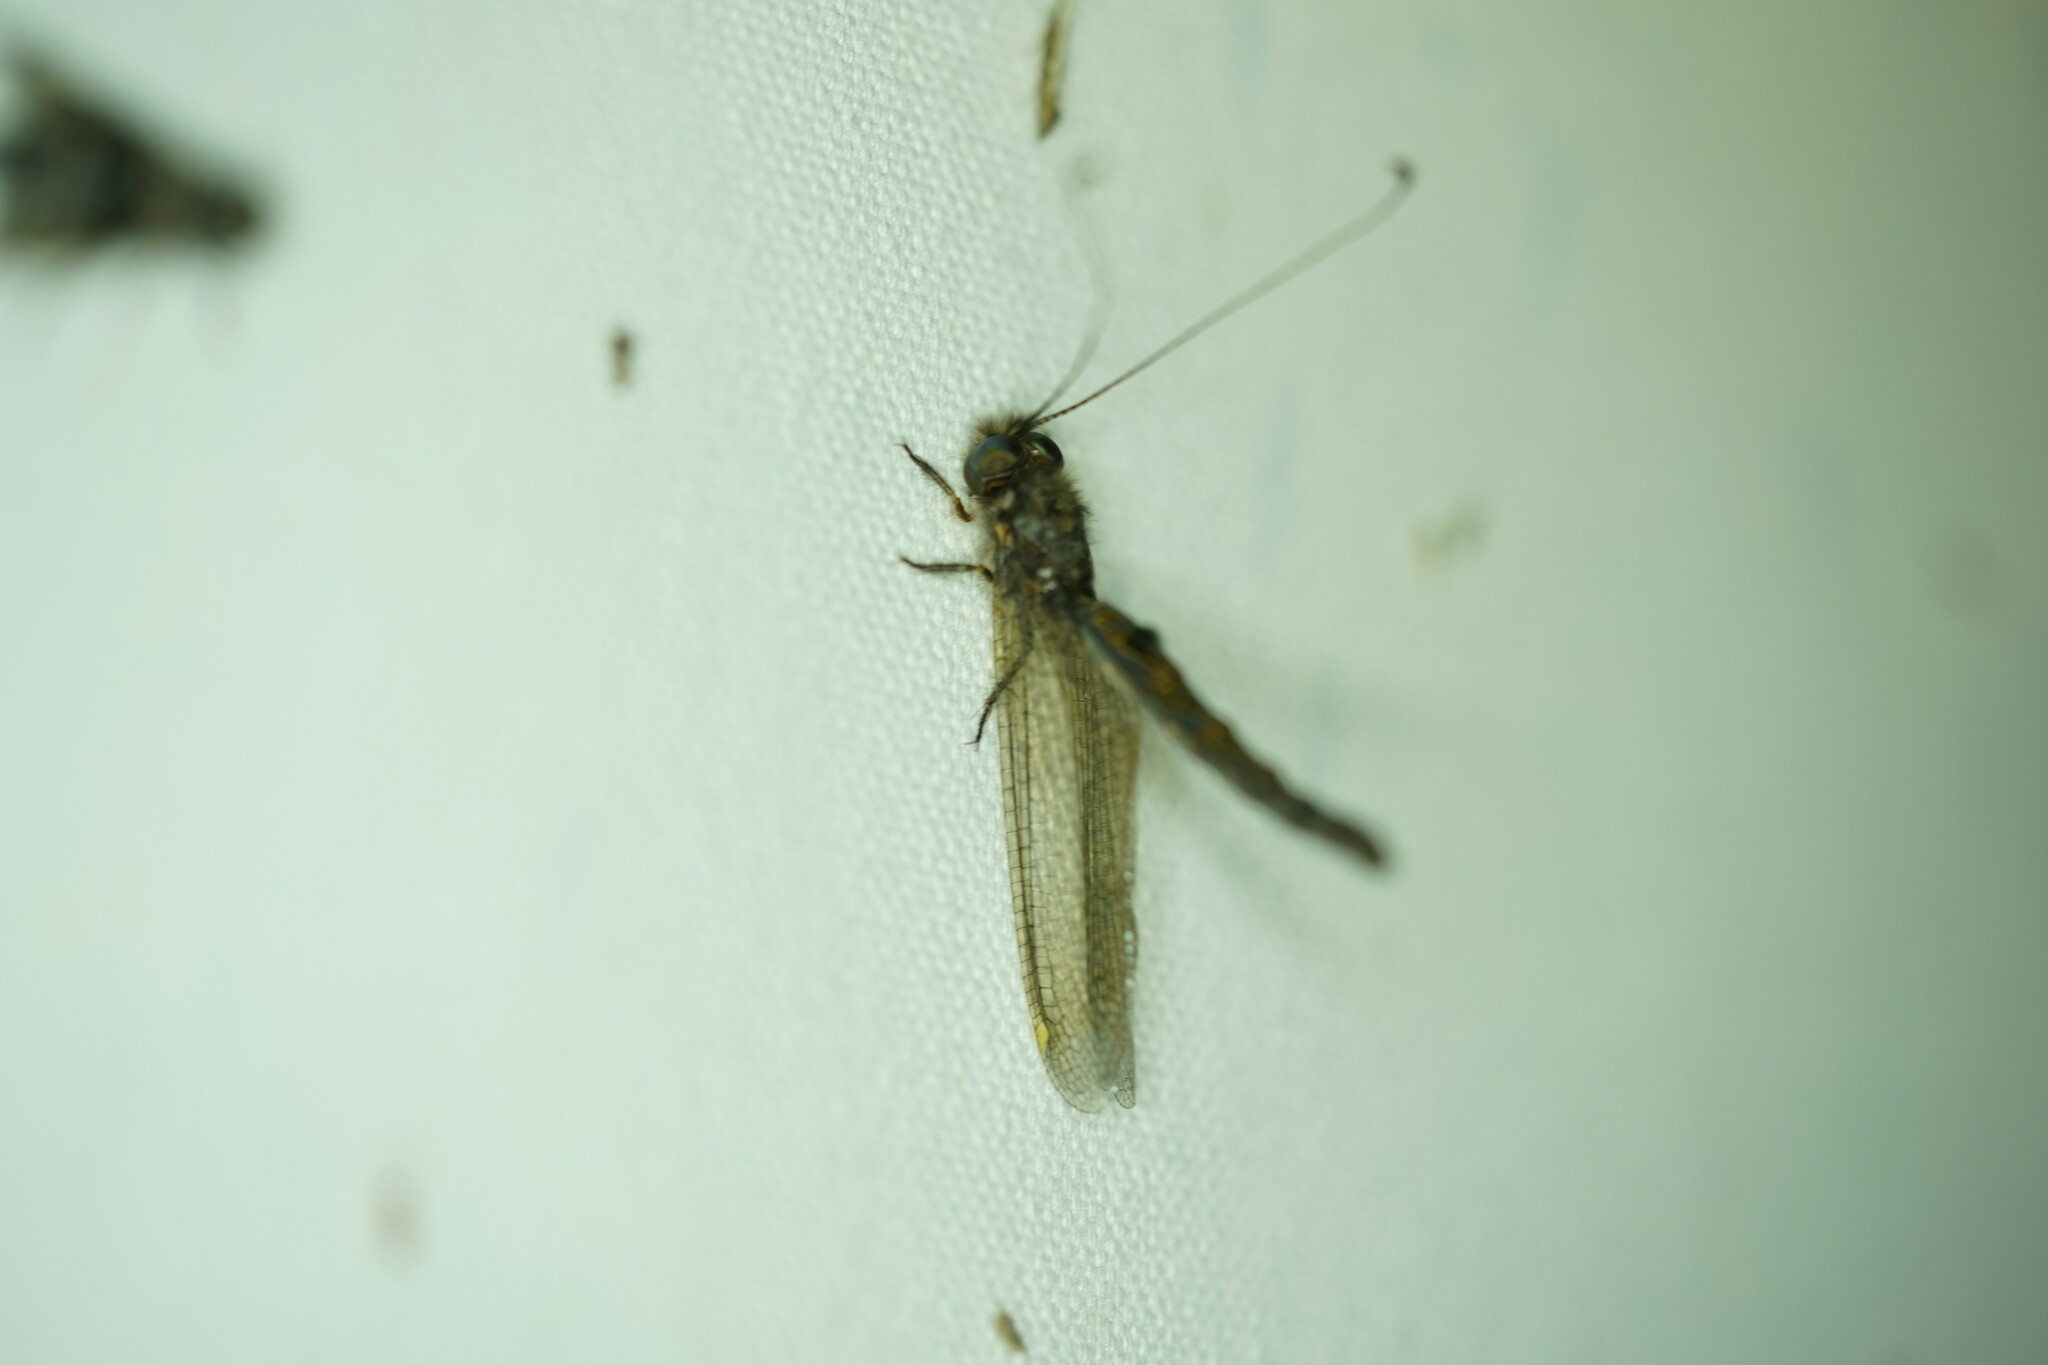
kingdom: Animalia
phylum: Arthropoda
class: Insecta
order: Neuroptera
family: Ascalaphidae
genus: Ululodes
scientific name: Ululodes quadripunctatus
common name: Four-spotted owlfly
